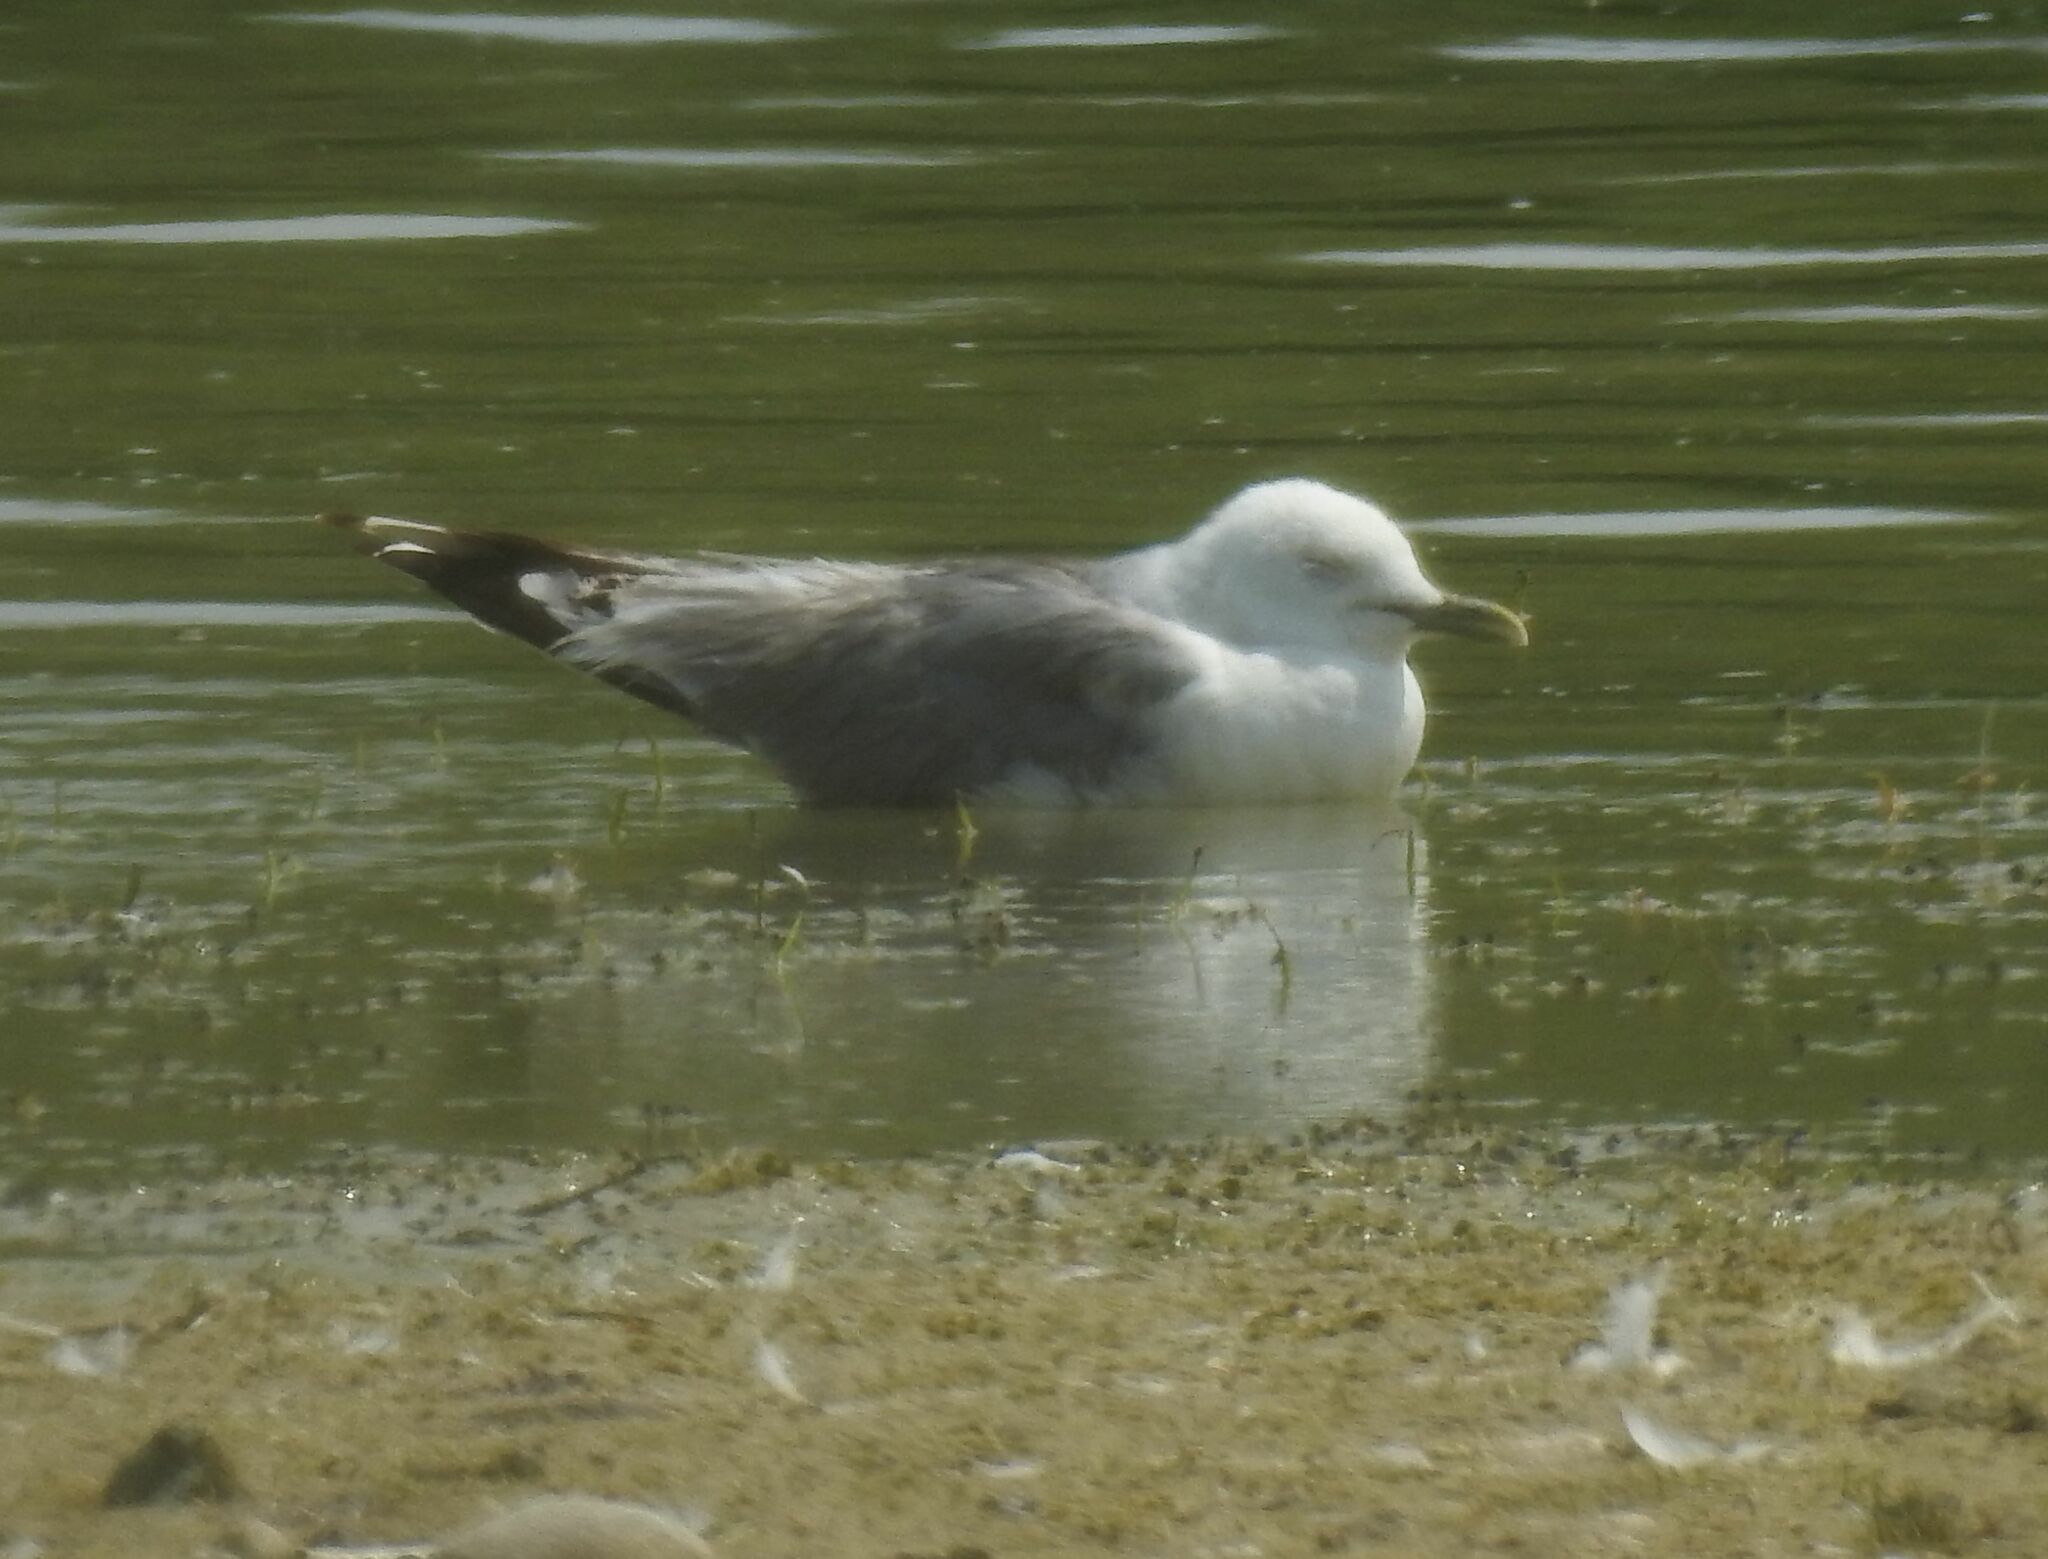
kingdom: Animalia
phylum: Chordata
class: Aves
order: Charadriiformes
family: Laridae
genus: Larus
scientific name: Larus canus
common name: Mew gull
